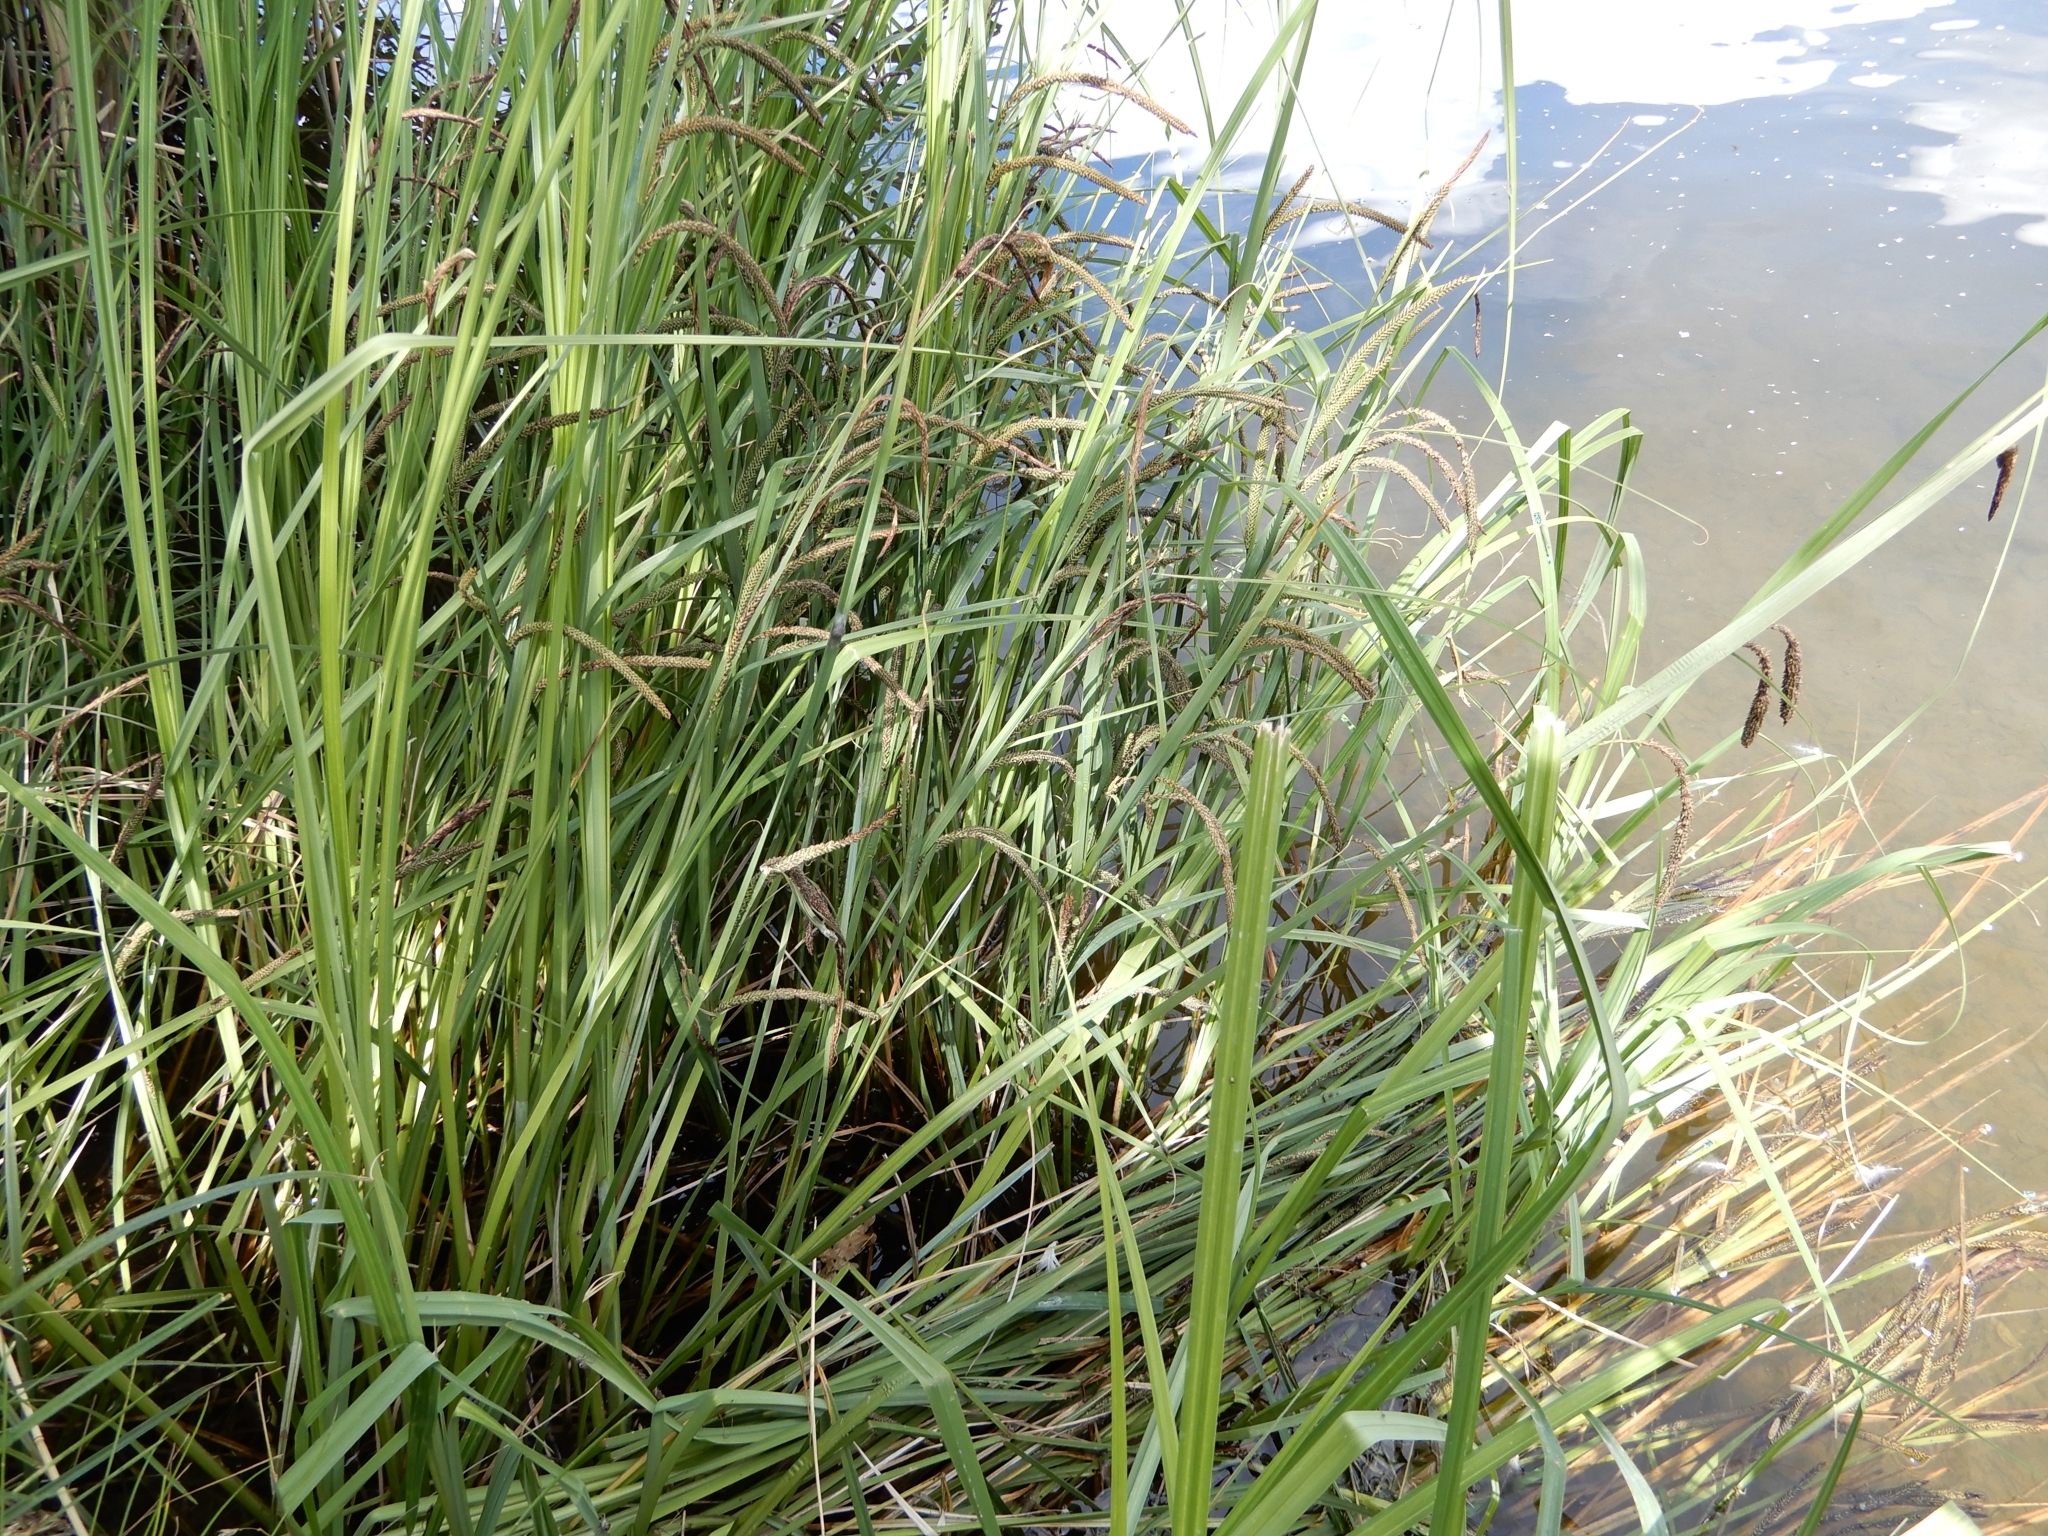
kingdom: Plantae
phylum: Tracheophyta
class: Liliopsida
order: Poales
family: Cyperaceae
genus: Carex
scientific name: Carex pendula
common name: Pendulous sedge
